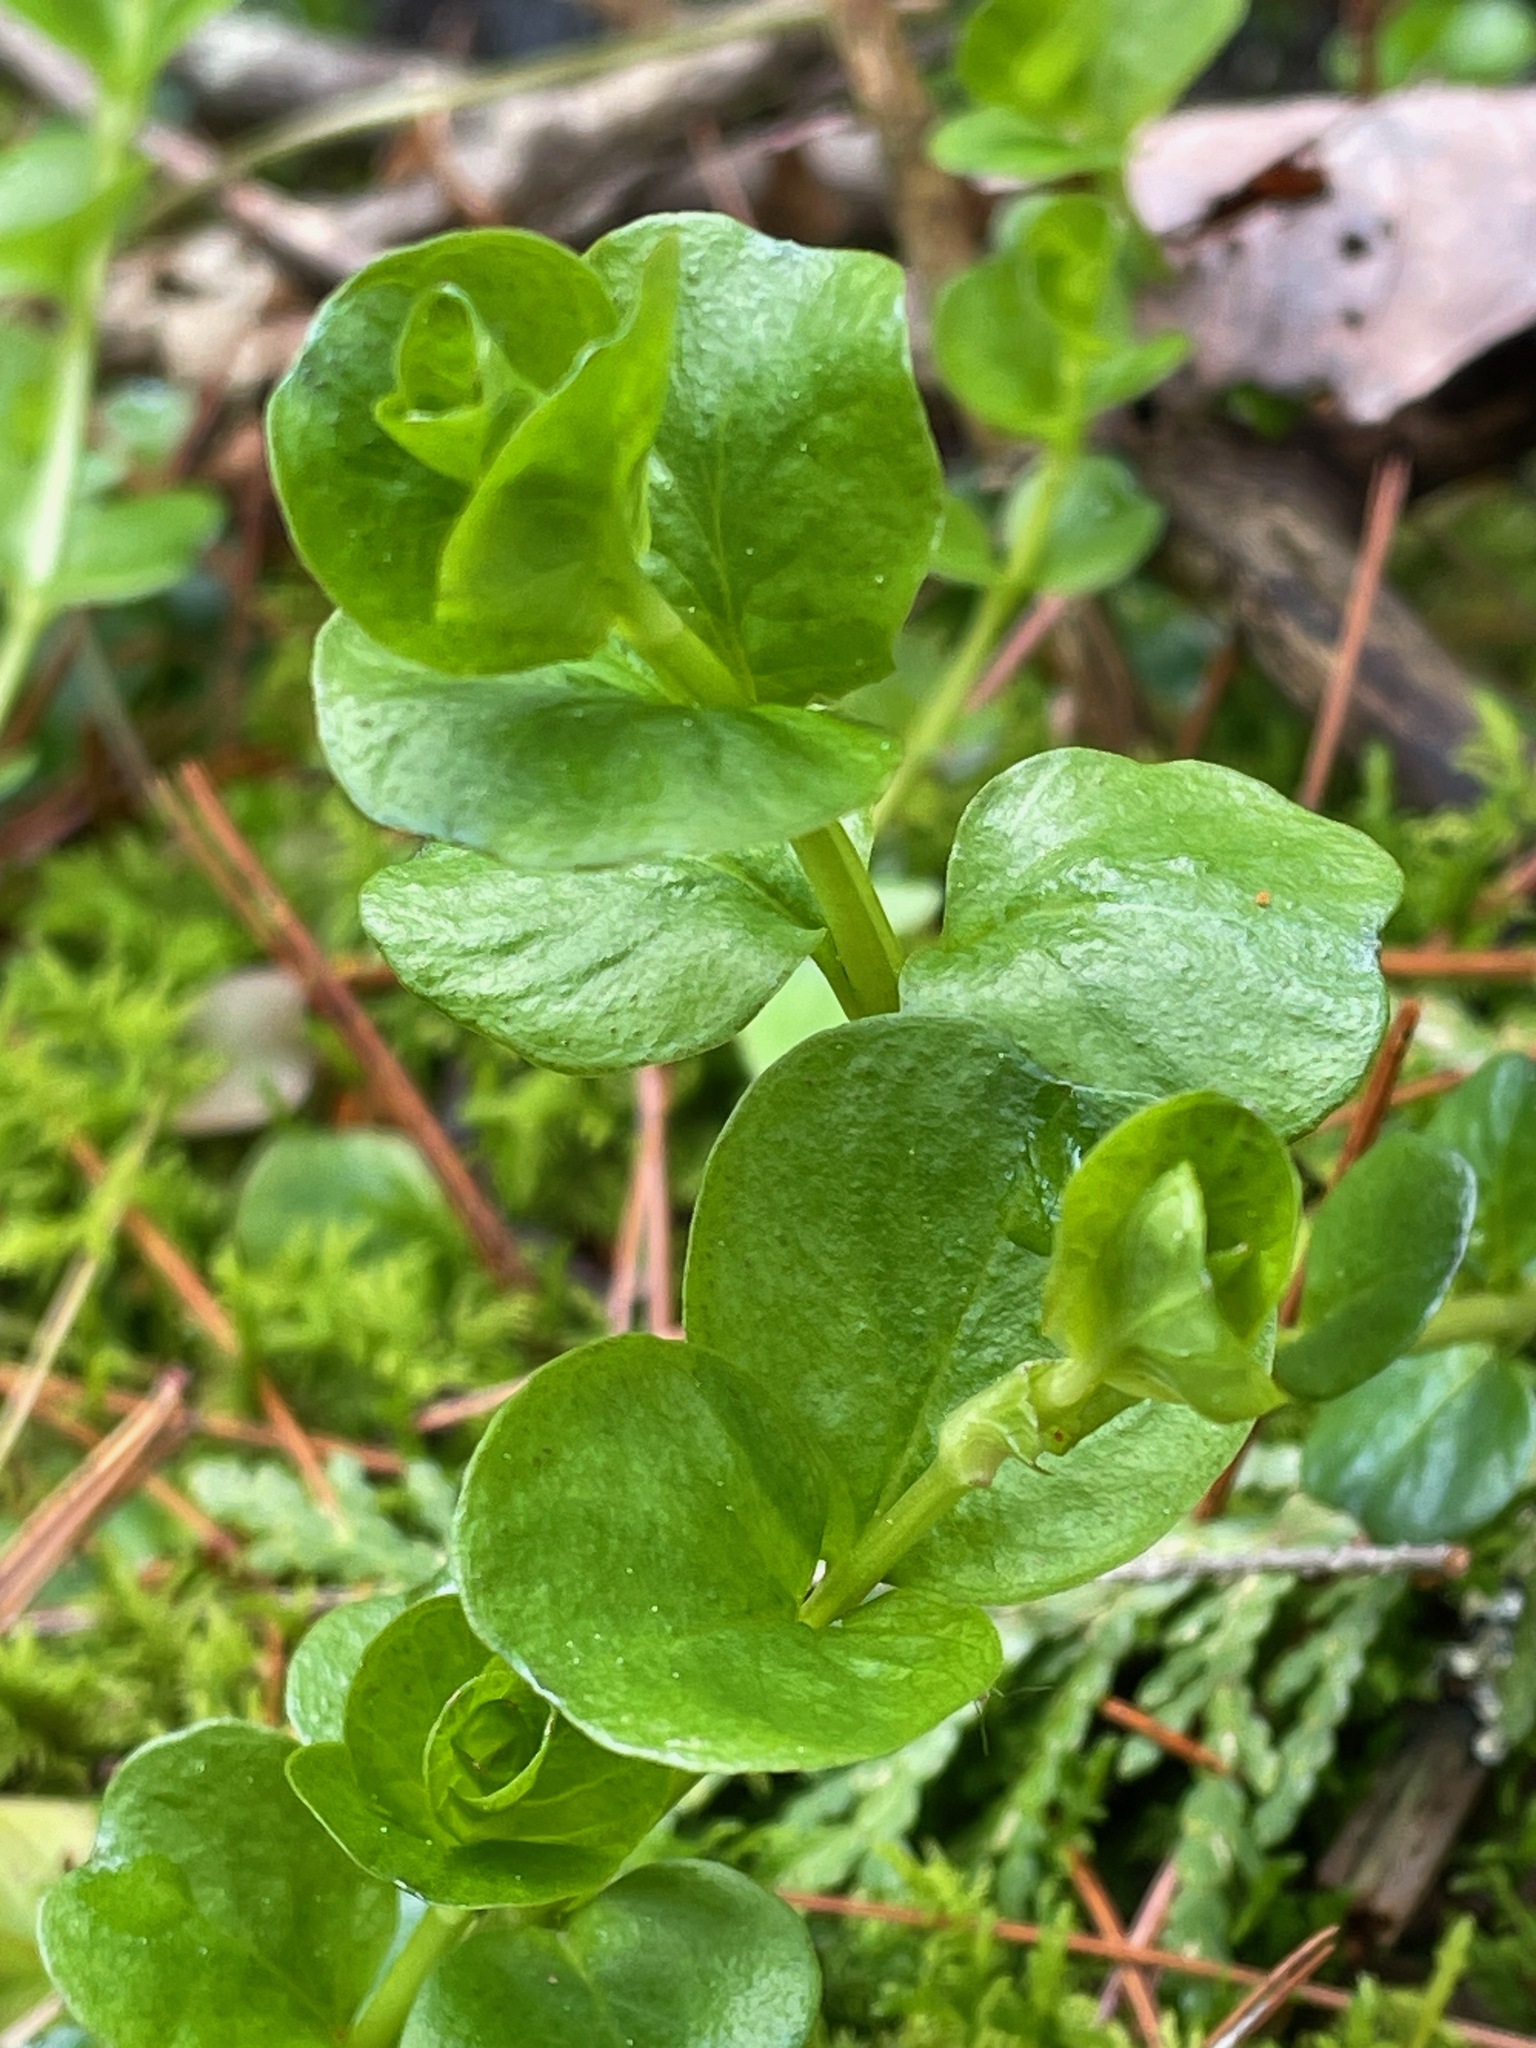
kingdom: Plantae
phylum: Tracheophyta
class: Magnoliopsida
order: Ericales
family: Primulaceae
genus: Lysimachia
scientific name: Lysimachia nummularia
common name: Moneywort
